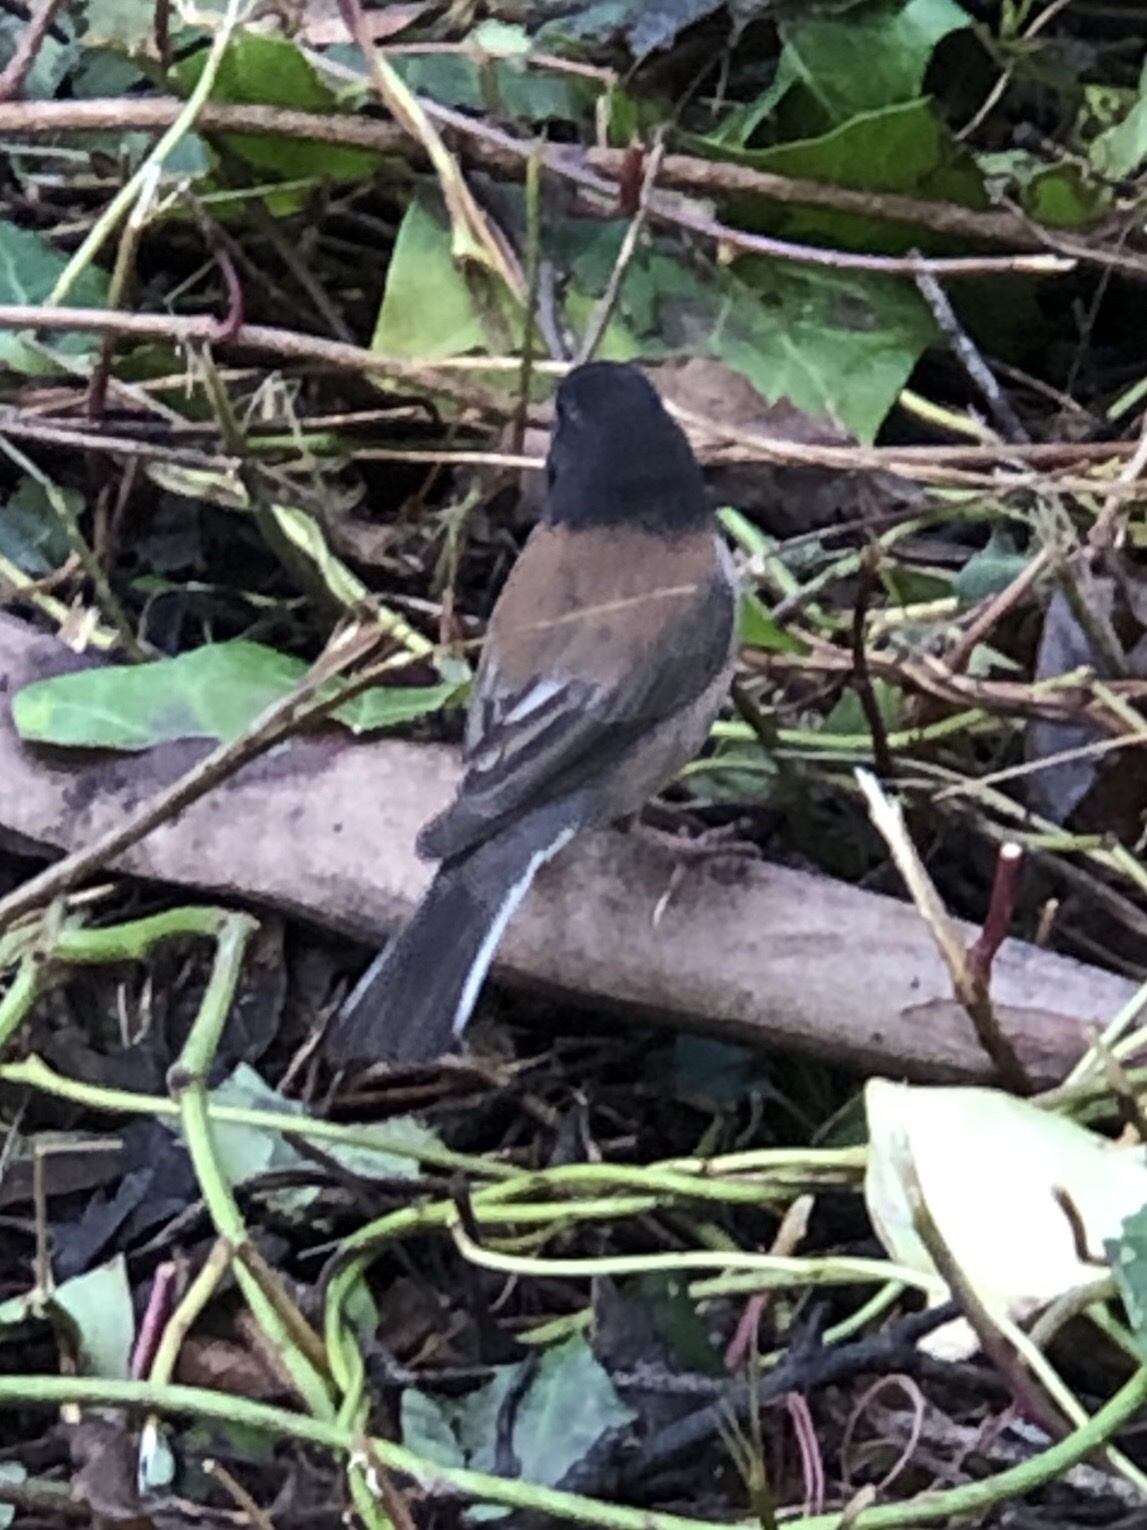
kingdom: Animalia
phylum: Chordata
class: Aves
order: Passeriformes
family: Passerellidae
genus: Junco
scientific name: Junco hyemalis
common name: Dark-eyed junco
